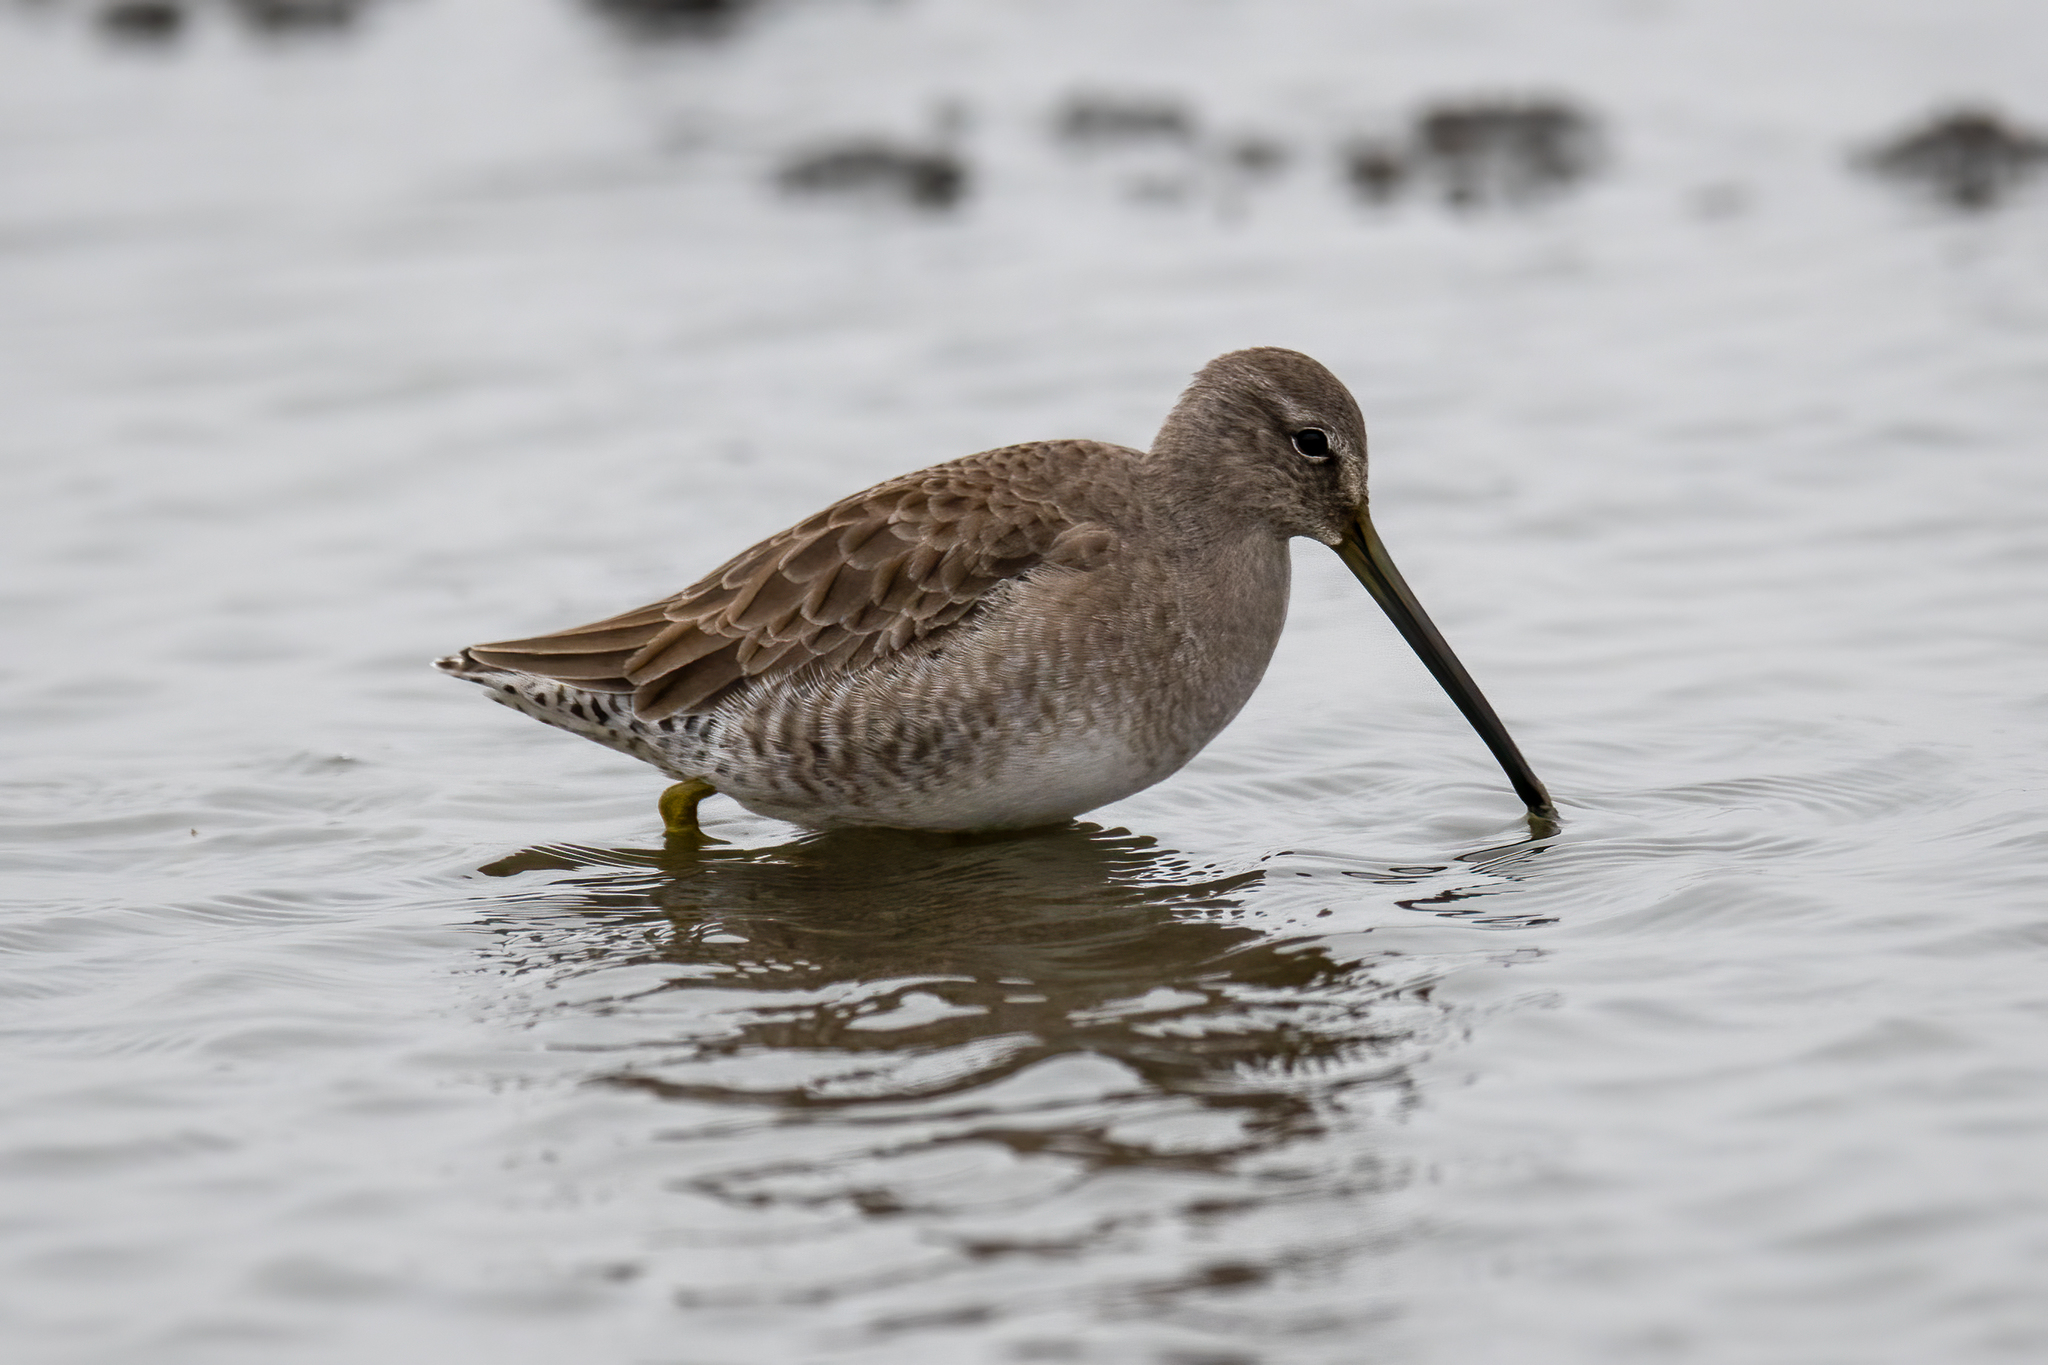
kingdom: Animalia
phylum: Chordata
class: Aves
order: Charadriiformes
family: Scolopacidae
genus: Limnodromus
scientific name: Limnodromus scolopaceus
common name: Long-billed dowitcher
